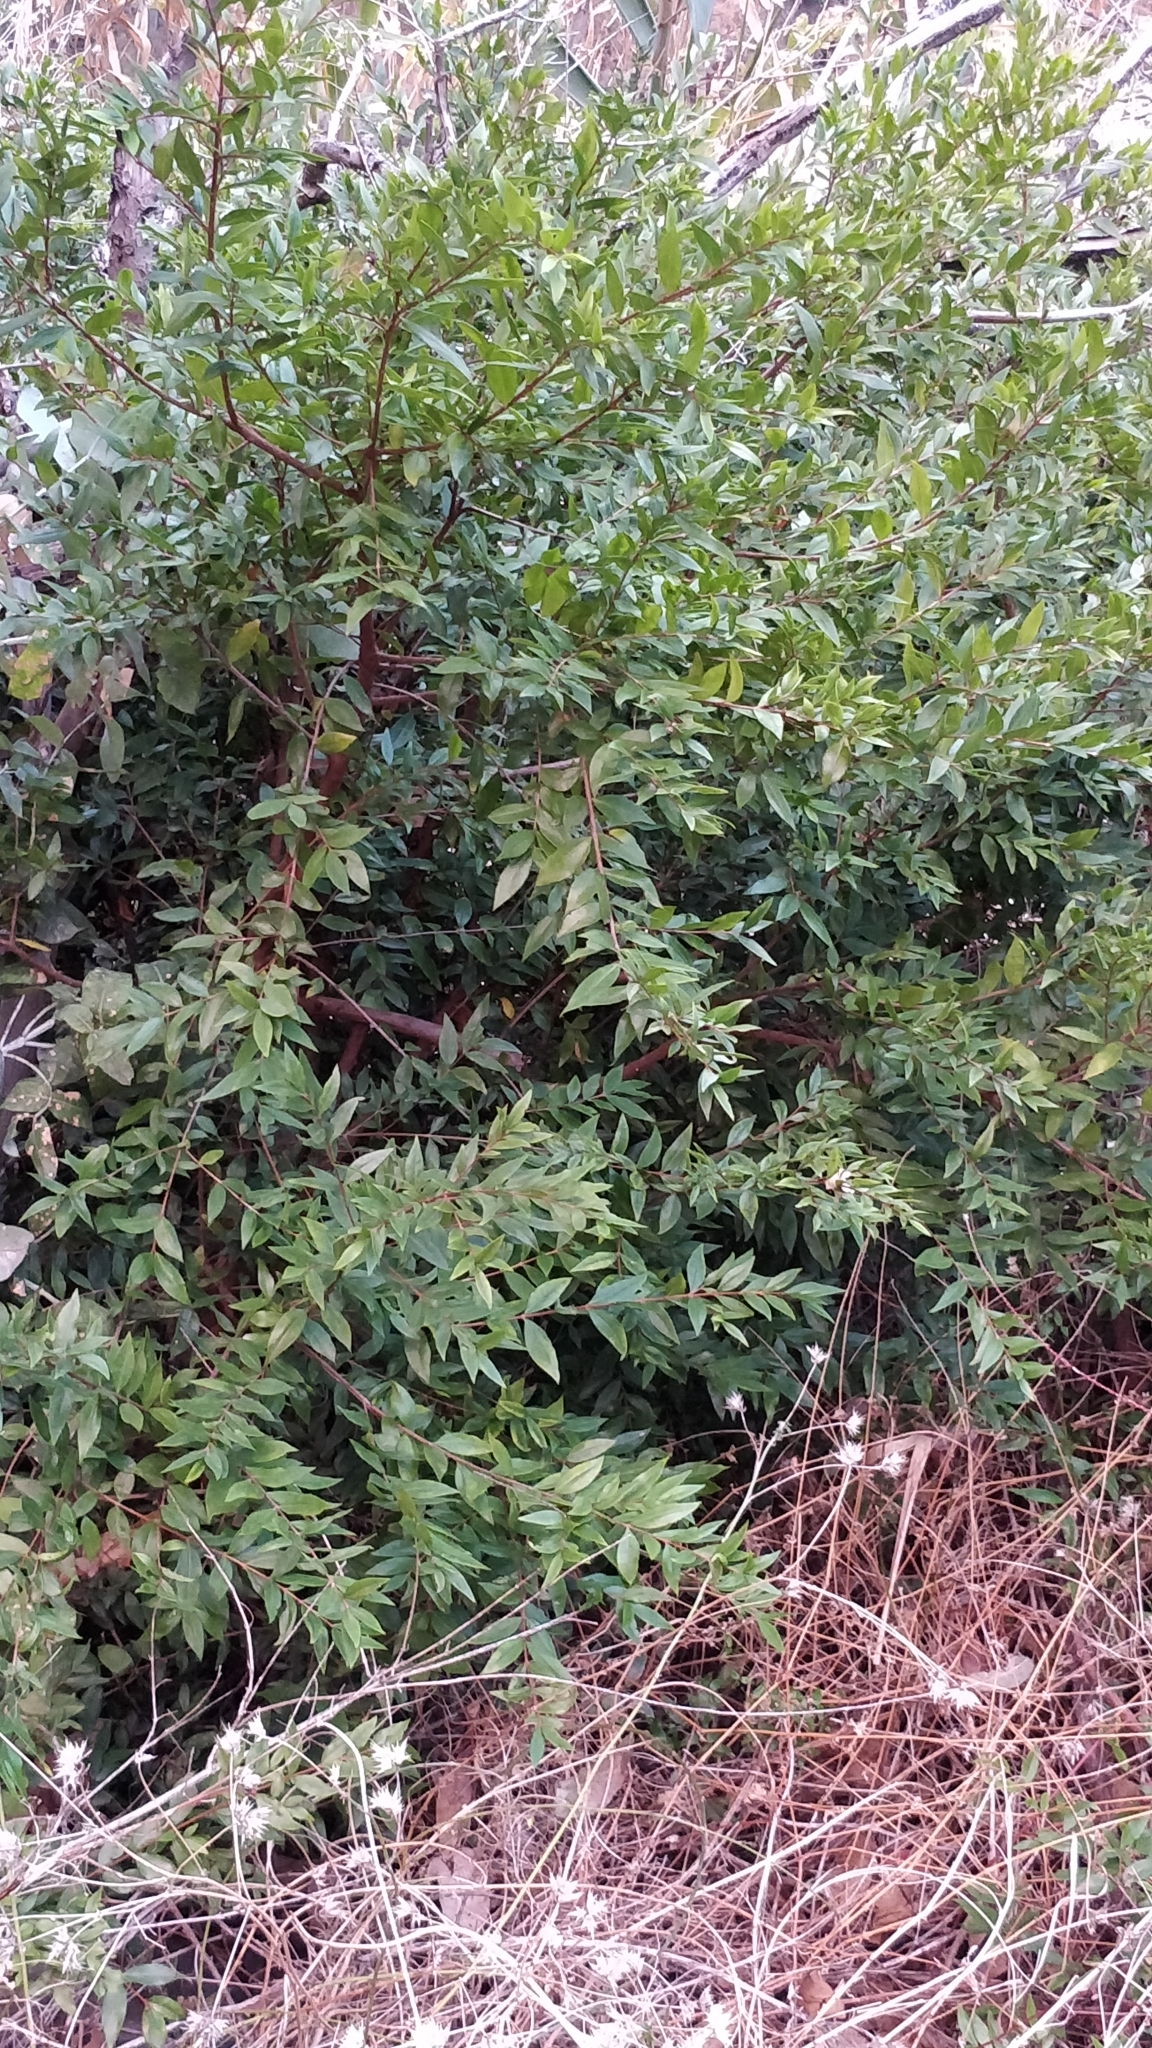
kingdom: Plantae
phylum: Tracheophyta
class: Magnoliopsida
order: Myrtales
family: Myrtaceae
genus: Myrtus
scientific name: Myrtus communis
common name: Myrtle
